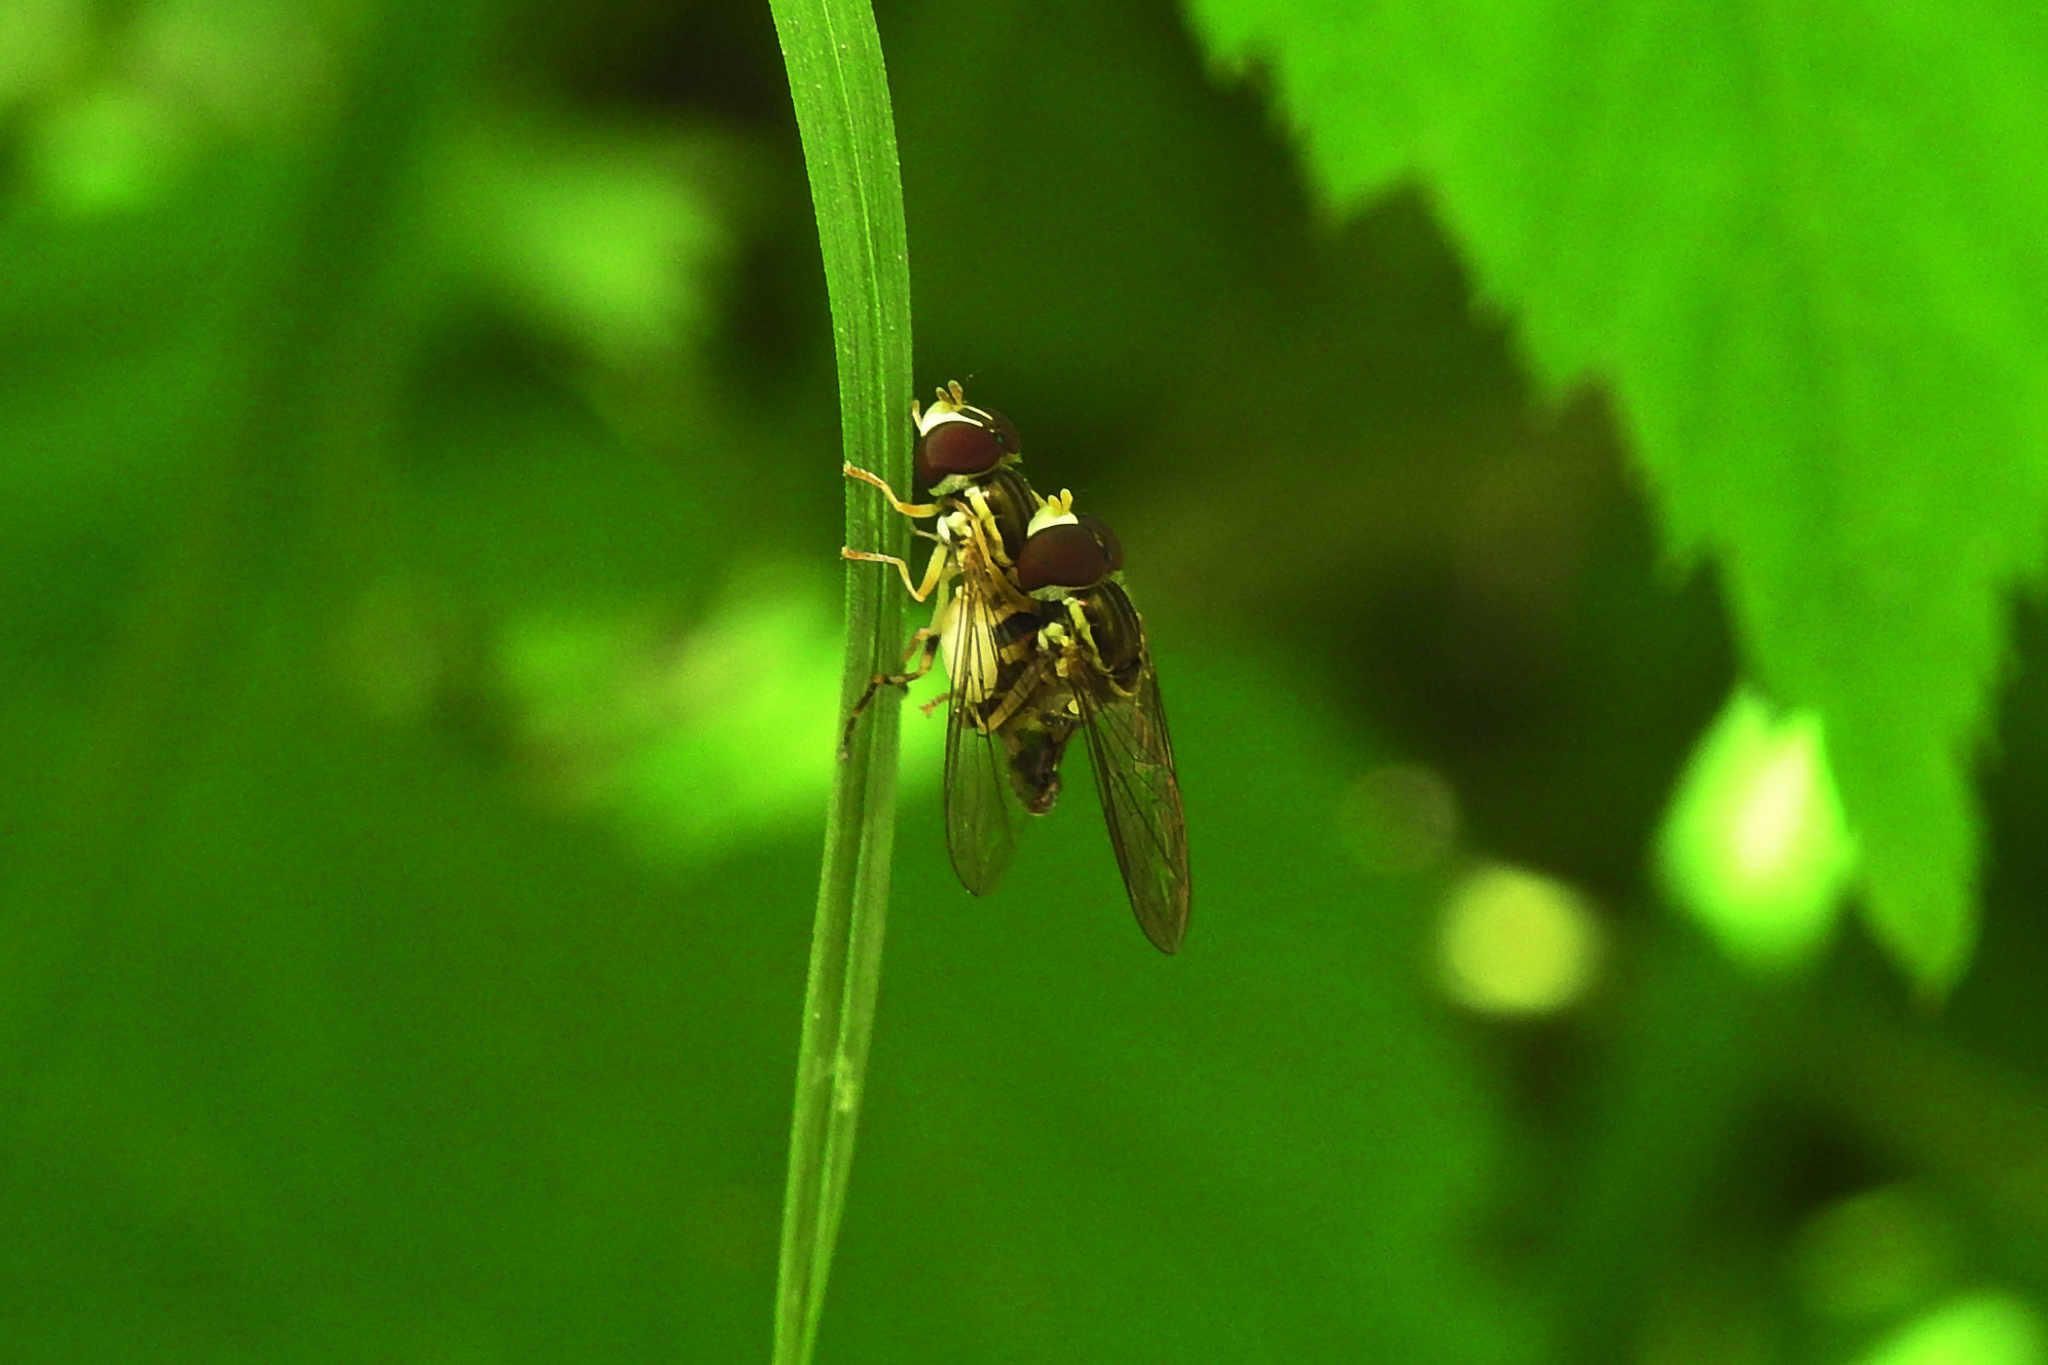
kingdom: Animalia
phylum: Arthropoda
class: Insecta
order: Diptera
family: Syrphidae
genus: Toxomerus
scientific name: Toxomerus geminatus
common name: Eastern calligrapher
